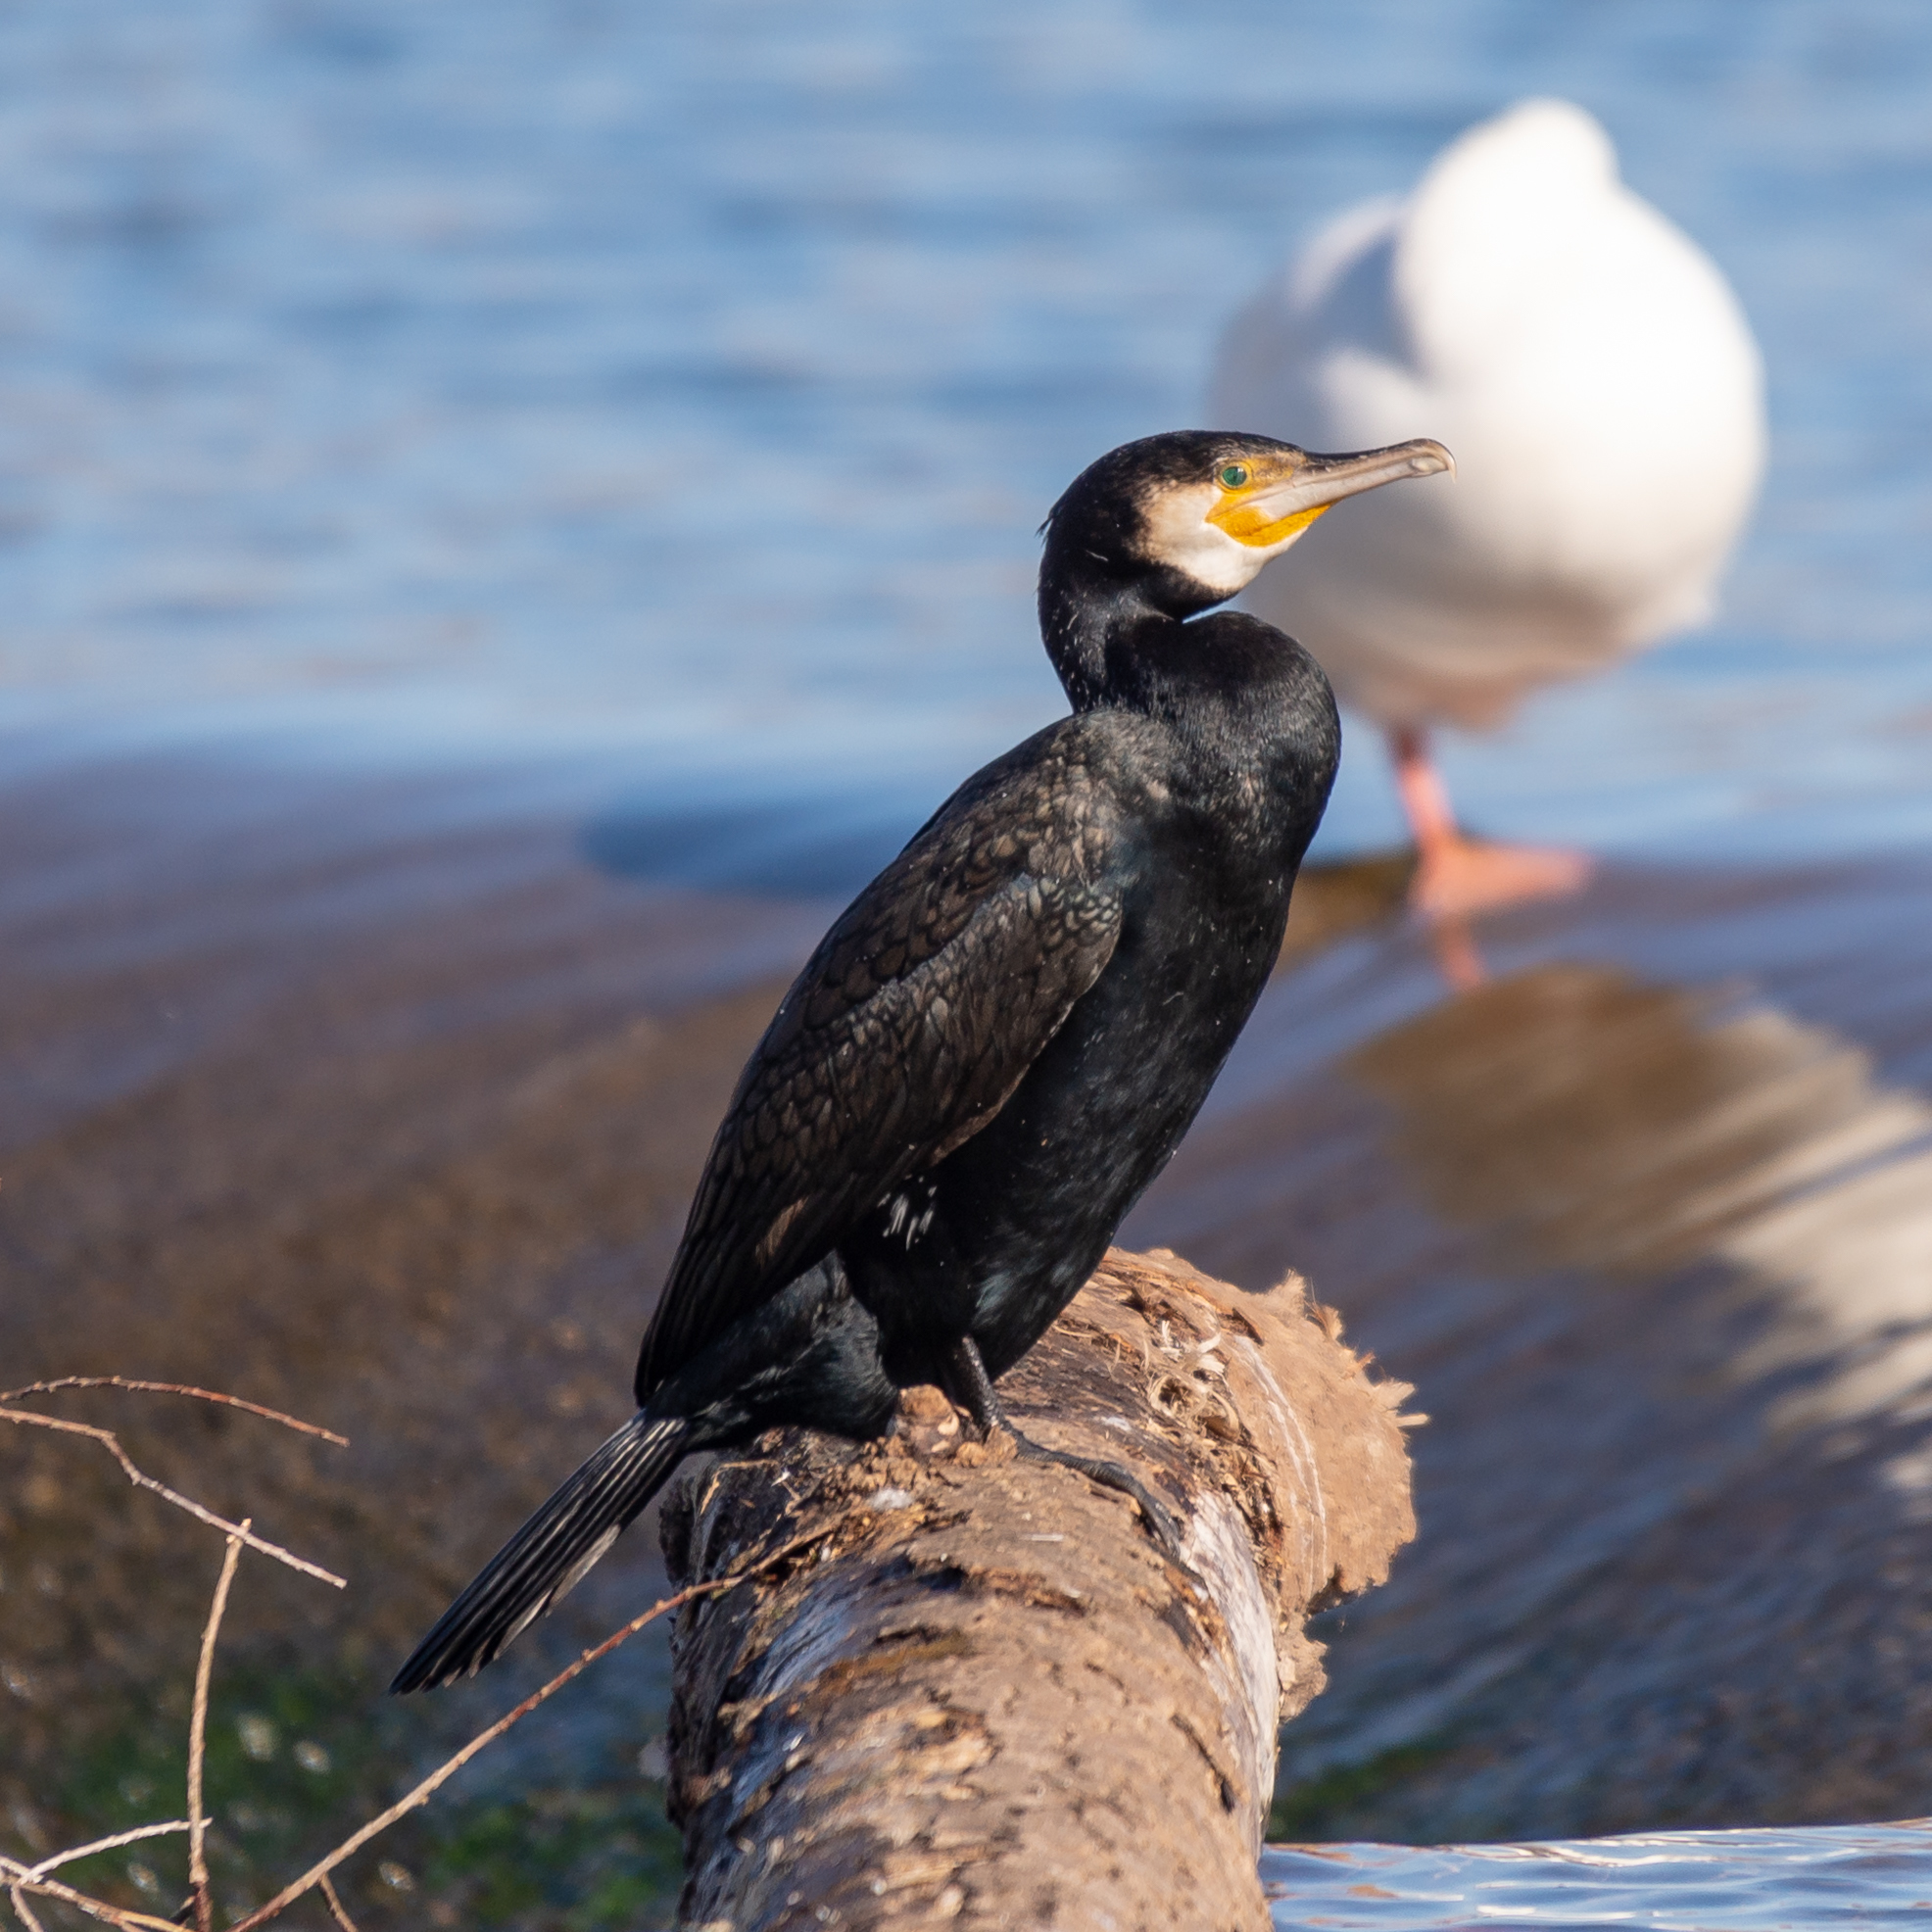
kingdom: Animalia
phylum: Chordata
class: Aves
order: Suliformes
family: Phalacrocoracidae
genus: Phalacrocorax
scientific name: Phalacrocorax carbo
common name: Great cormorant
